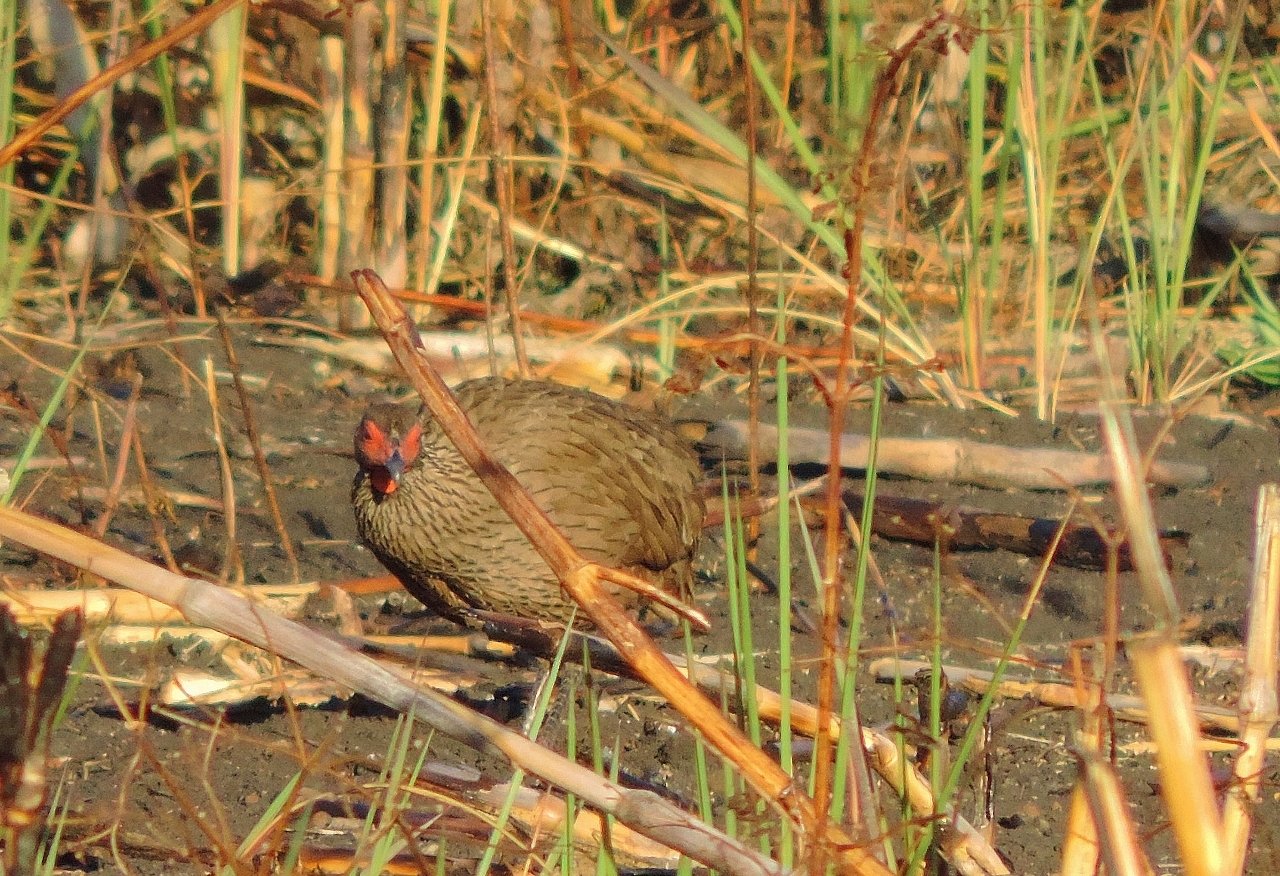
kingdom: Animalia
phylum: Chordata
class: Aves
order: Galliformes
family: Phasianidae
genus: Pternistis
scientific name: Pternistis swainsonii
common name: Swainson's spurfowl
